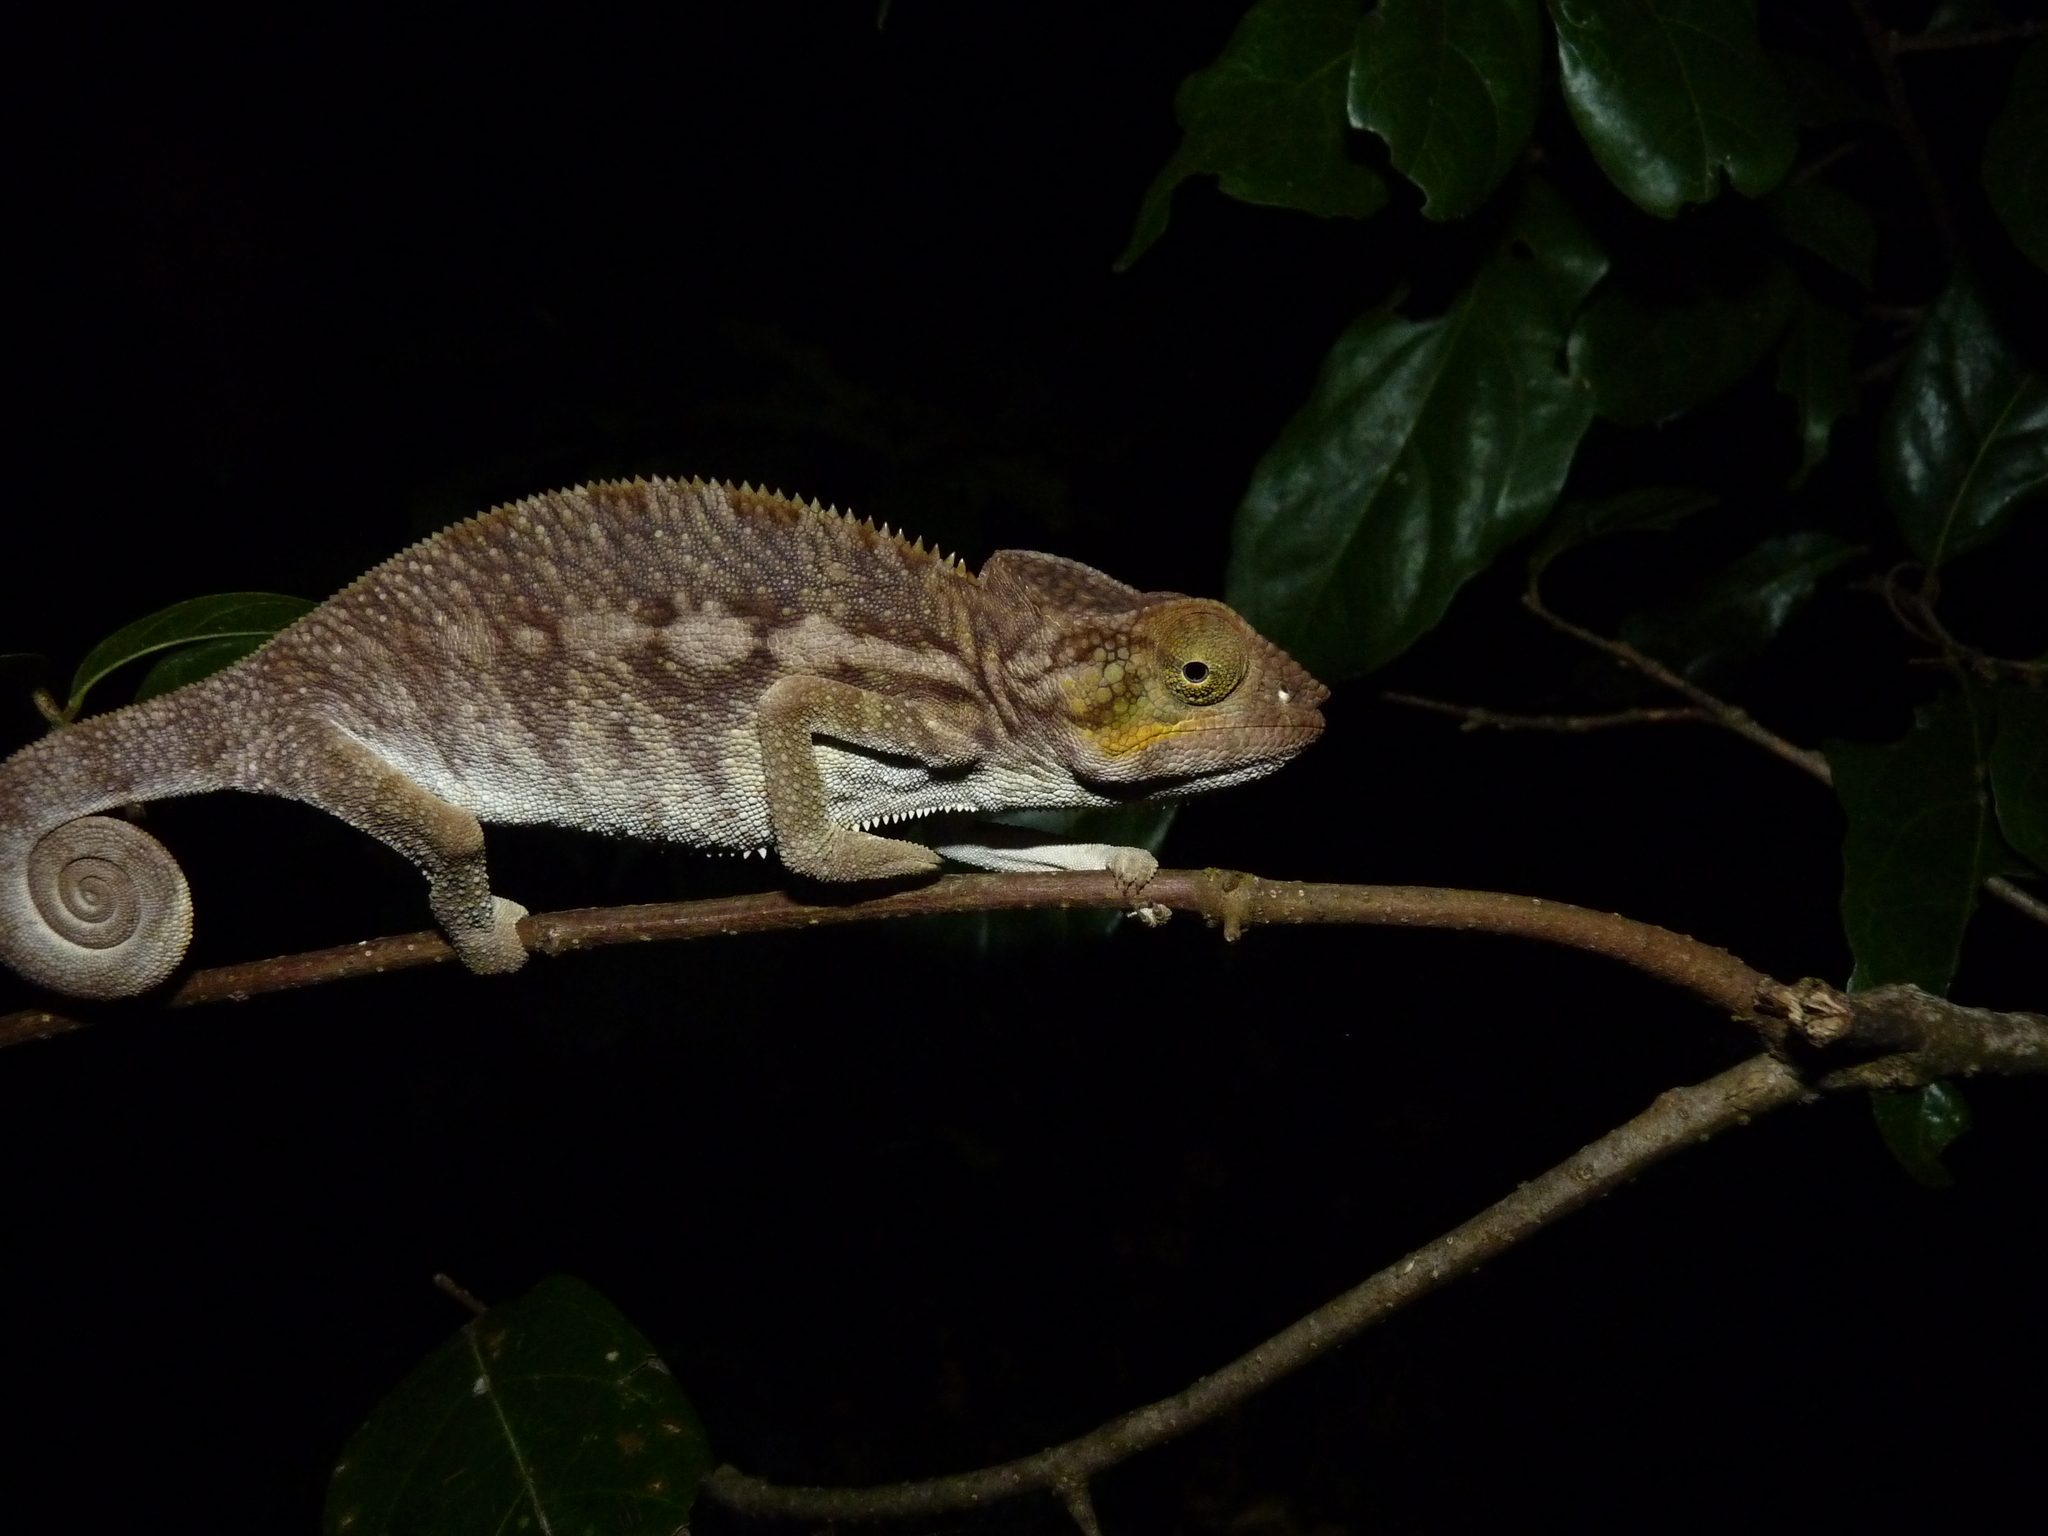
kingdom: Animalia
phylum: Chordata
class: Squamata
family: Chamaeleonidae
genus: Furcifer
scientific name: Furcifer pardalis
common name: Panther chameleon
